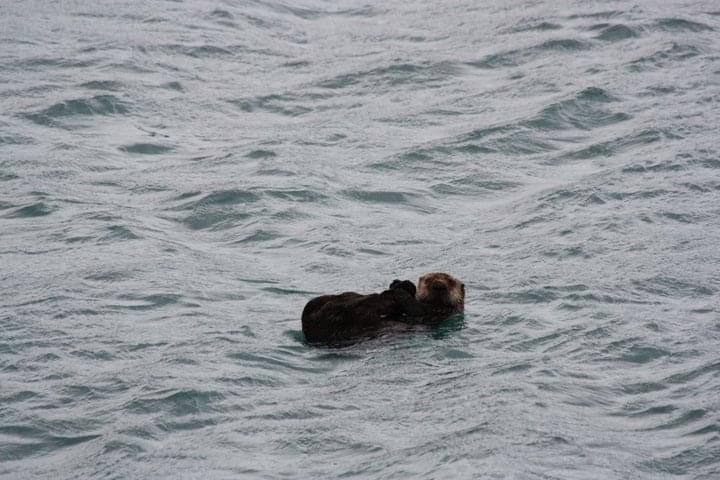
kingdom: Animalia
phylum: Chordata
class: Mammalia
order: Carnivora
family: Mustelidae
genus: Enhydra
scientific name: Enhydra lutris
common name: Sea otter
